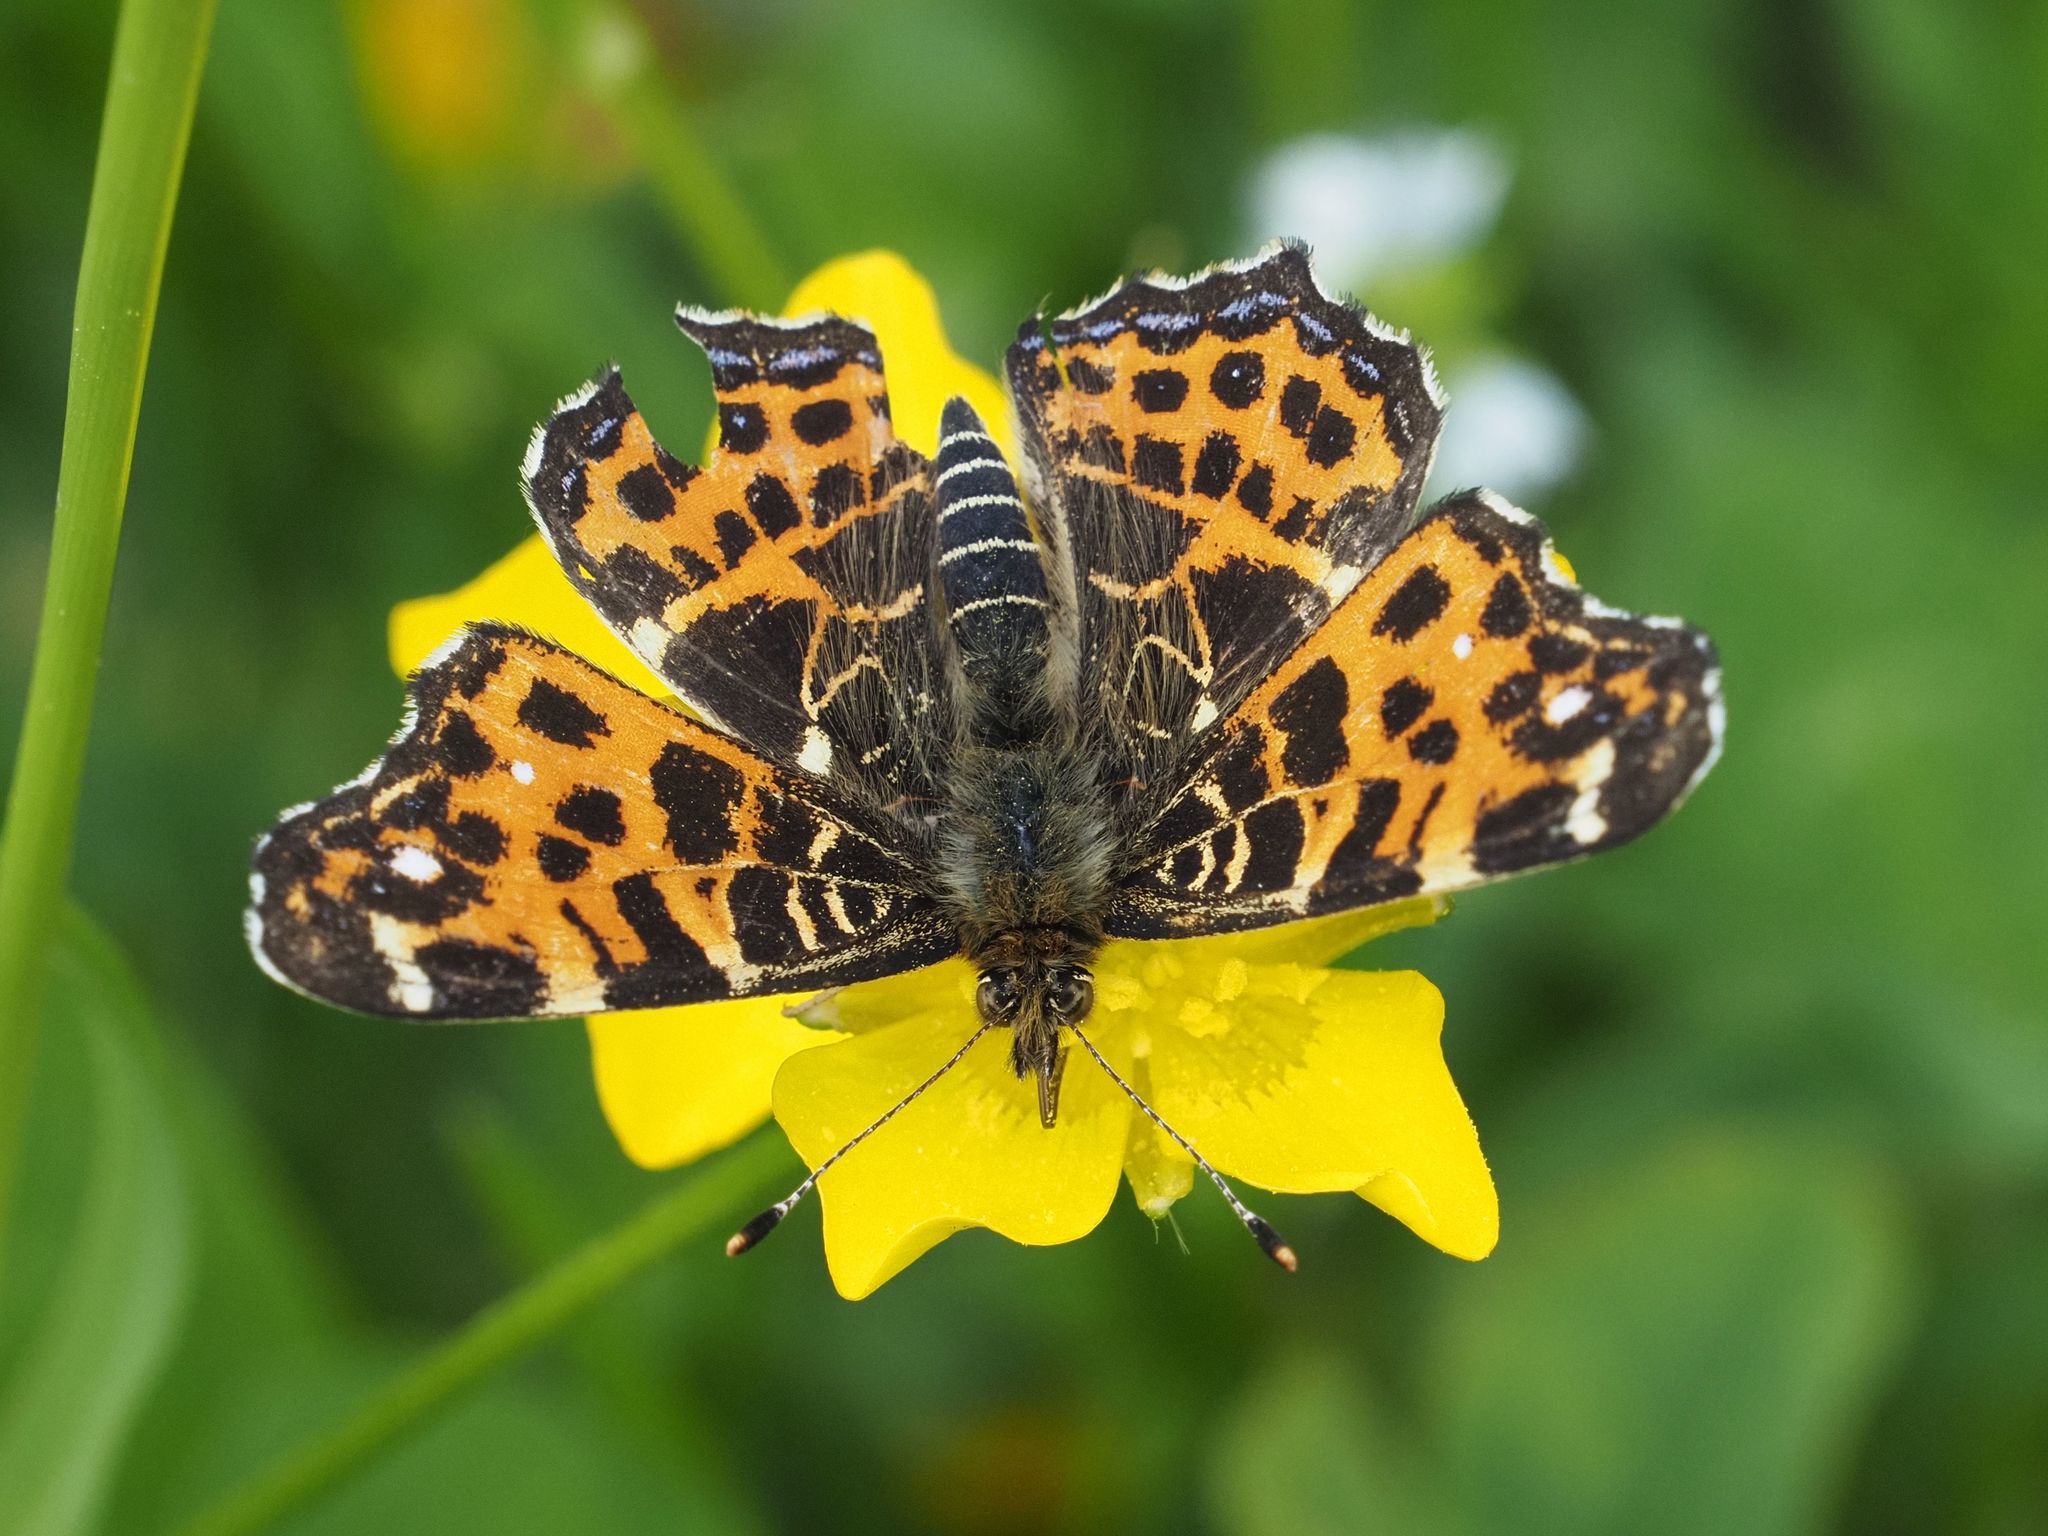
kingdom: Animalia
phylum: Arthropoda
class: Insecta
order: Lepidoptera
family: Nymphalidae
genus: Araschnia
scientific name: Araschnia levana
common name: Map butterfly
